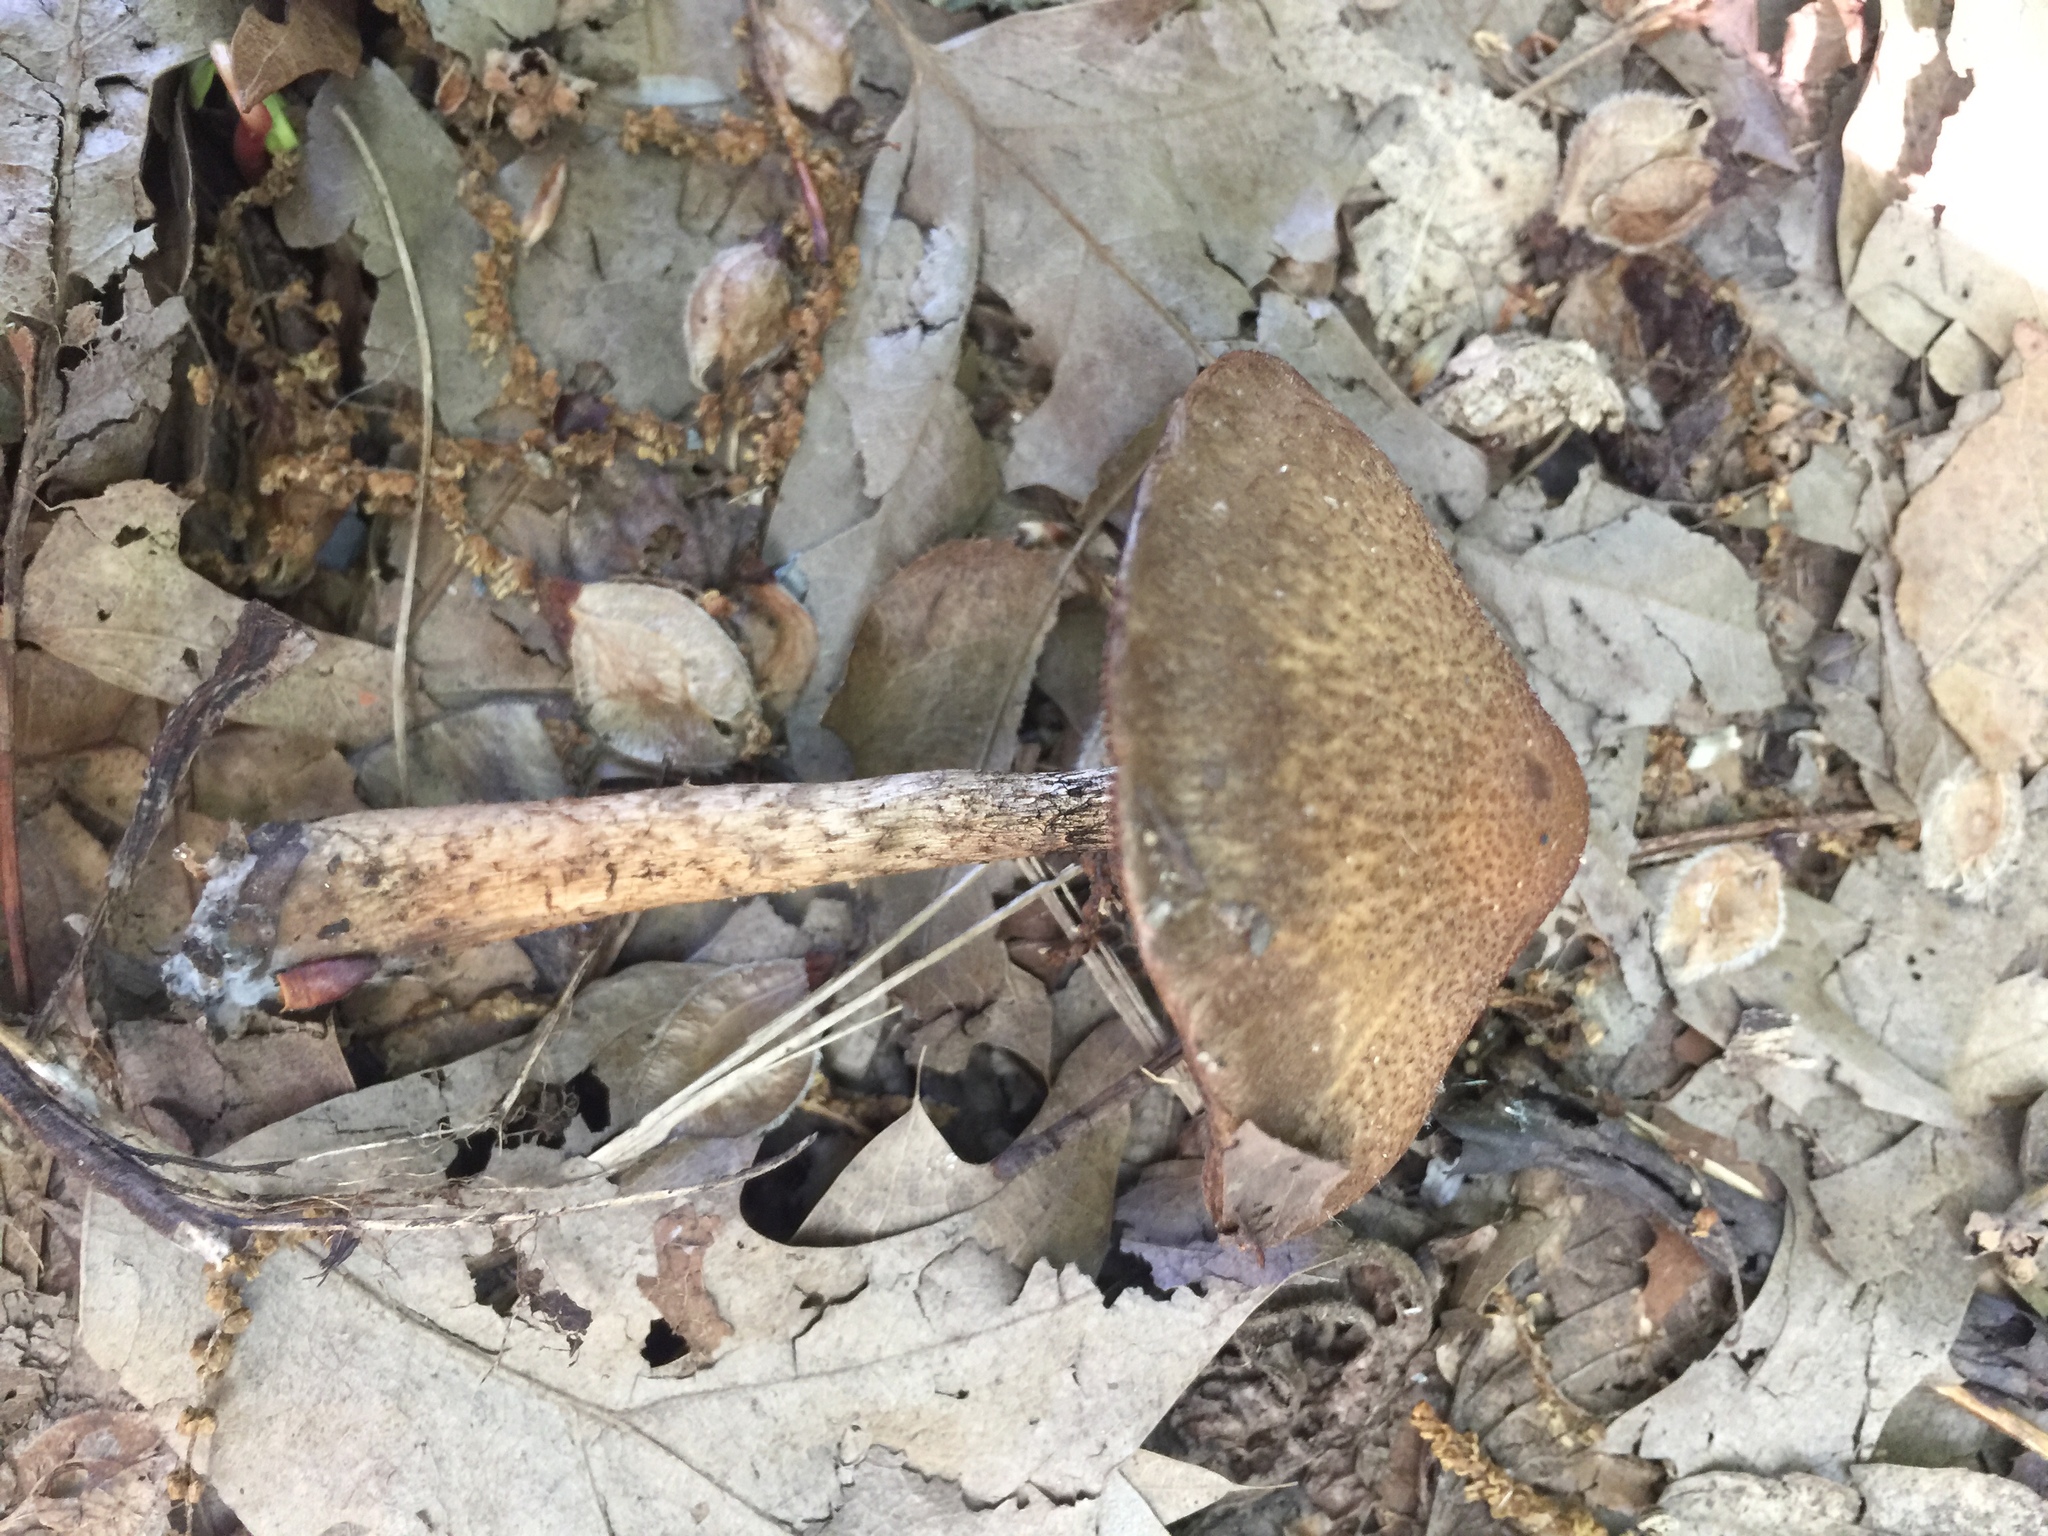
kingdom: Fungi
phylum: Basidiomycota
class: Agaricomycetes
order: Agaricales
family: Psathyrellaceae
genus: Lacrymaria
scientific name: Lacrymaria lacrymabunda
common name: Weeping widow
